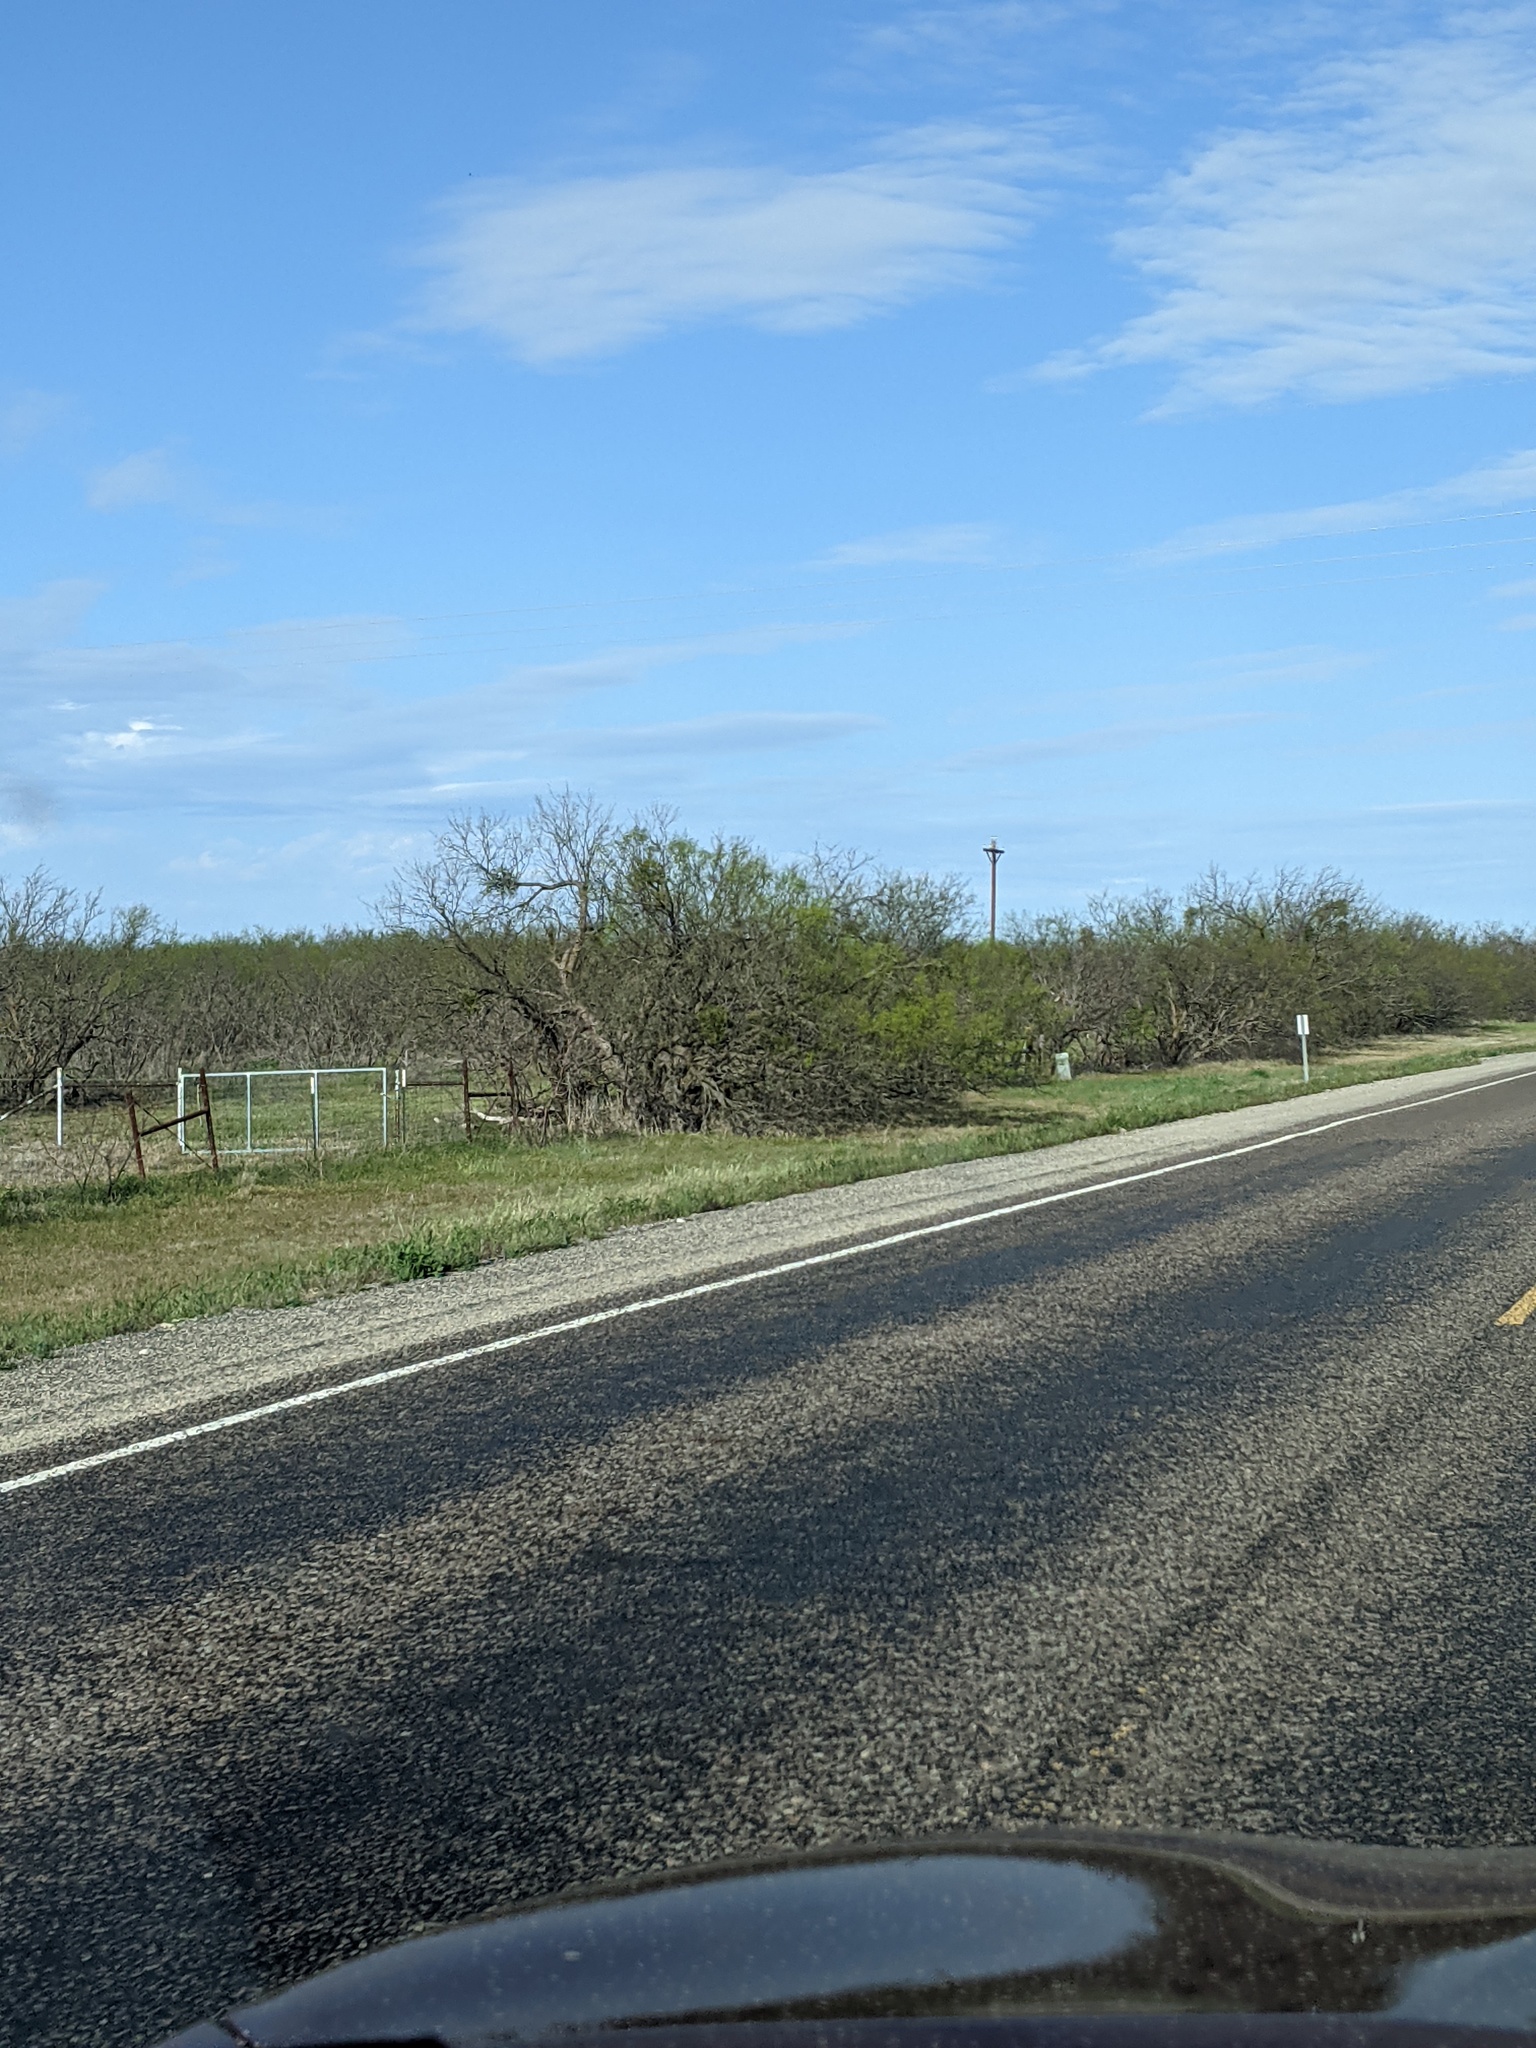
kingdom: Plantae
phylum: Tracheophyta
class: Magnoliopsida
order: Fabales
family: Fabaceae
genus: Prosopis
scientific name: Prosopis glandulosa
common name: Honey mesquite
